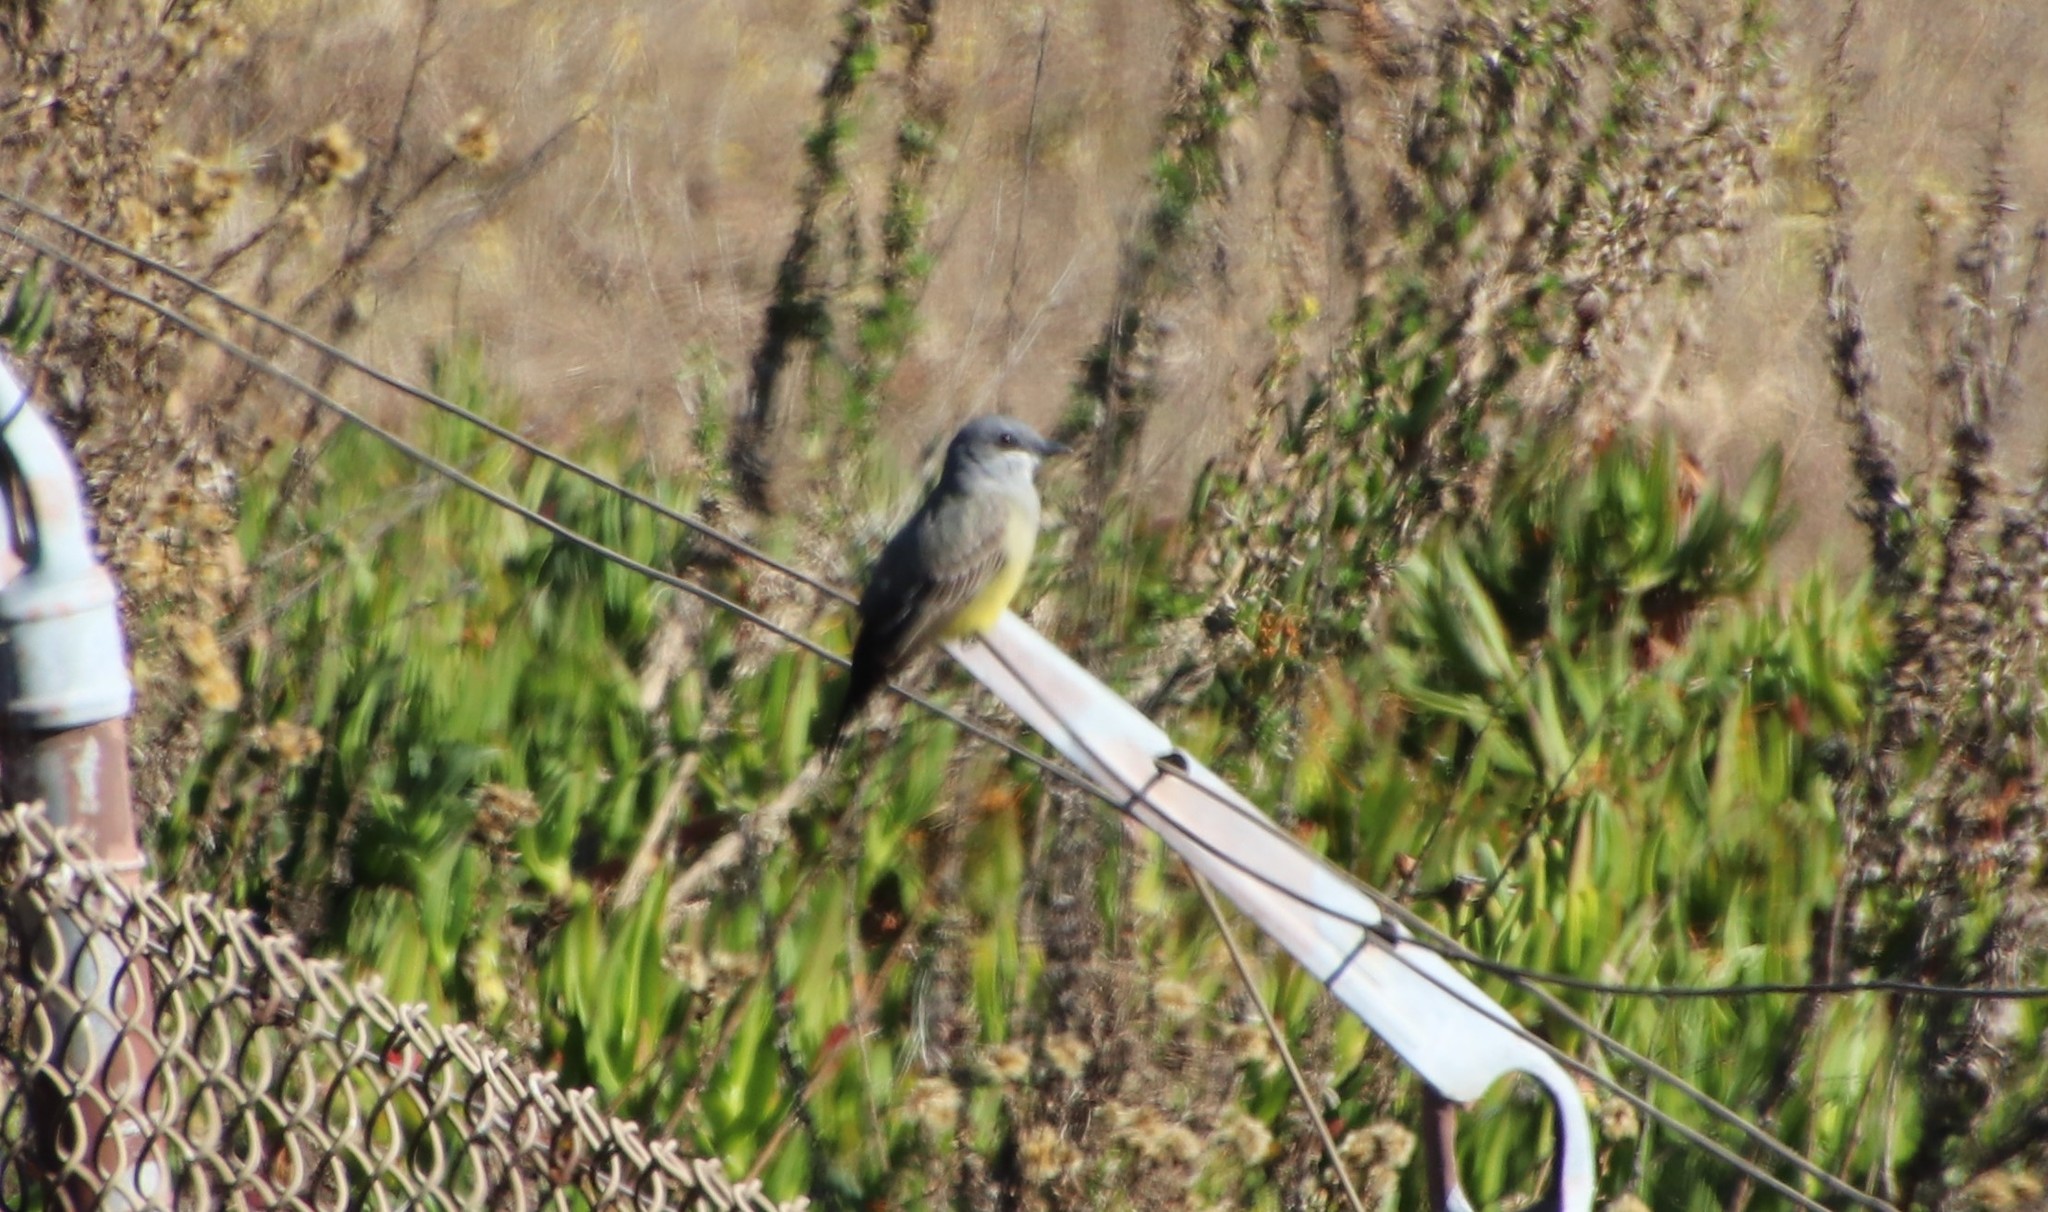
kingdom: Animalia
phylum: Chordata
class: Aves
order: Passeriformes
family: Tyrannidae
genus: Tyrannus
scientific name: Tyrannus vociferans
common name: Cassin's kingbird
